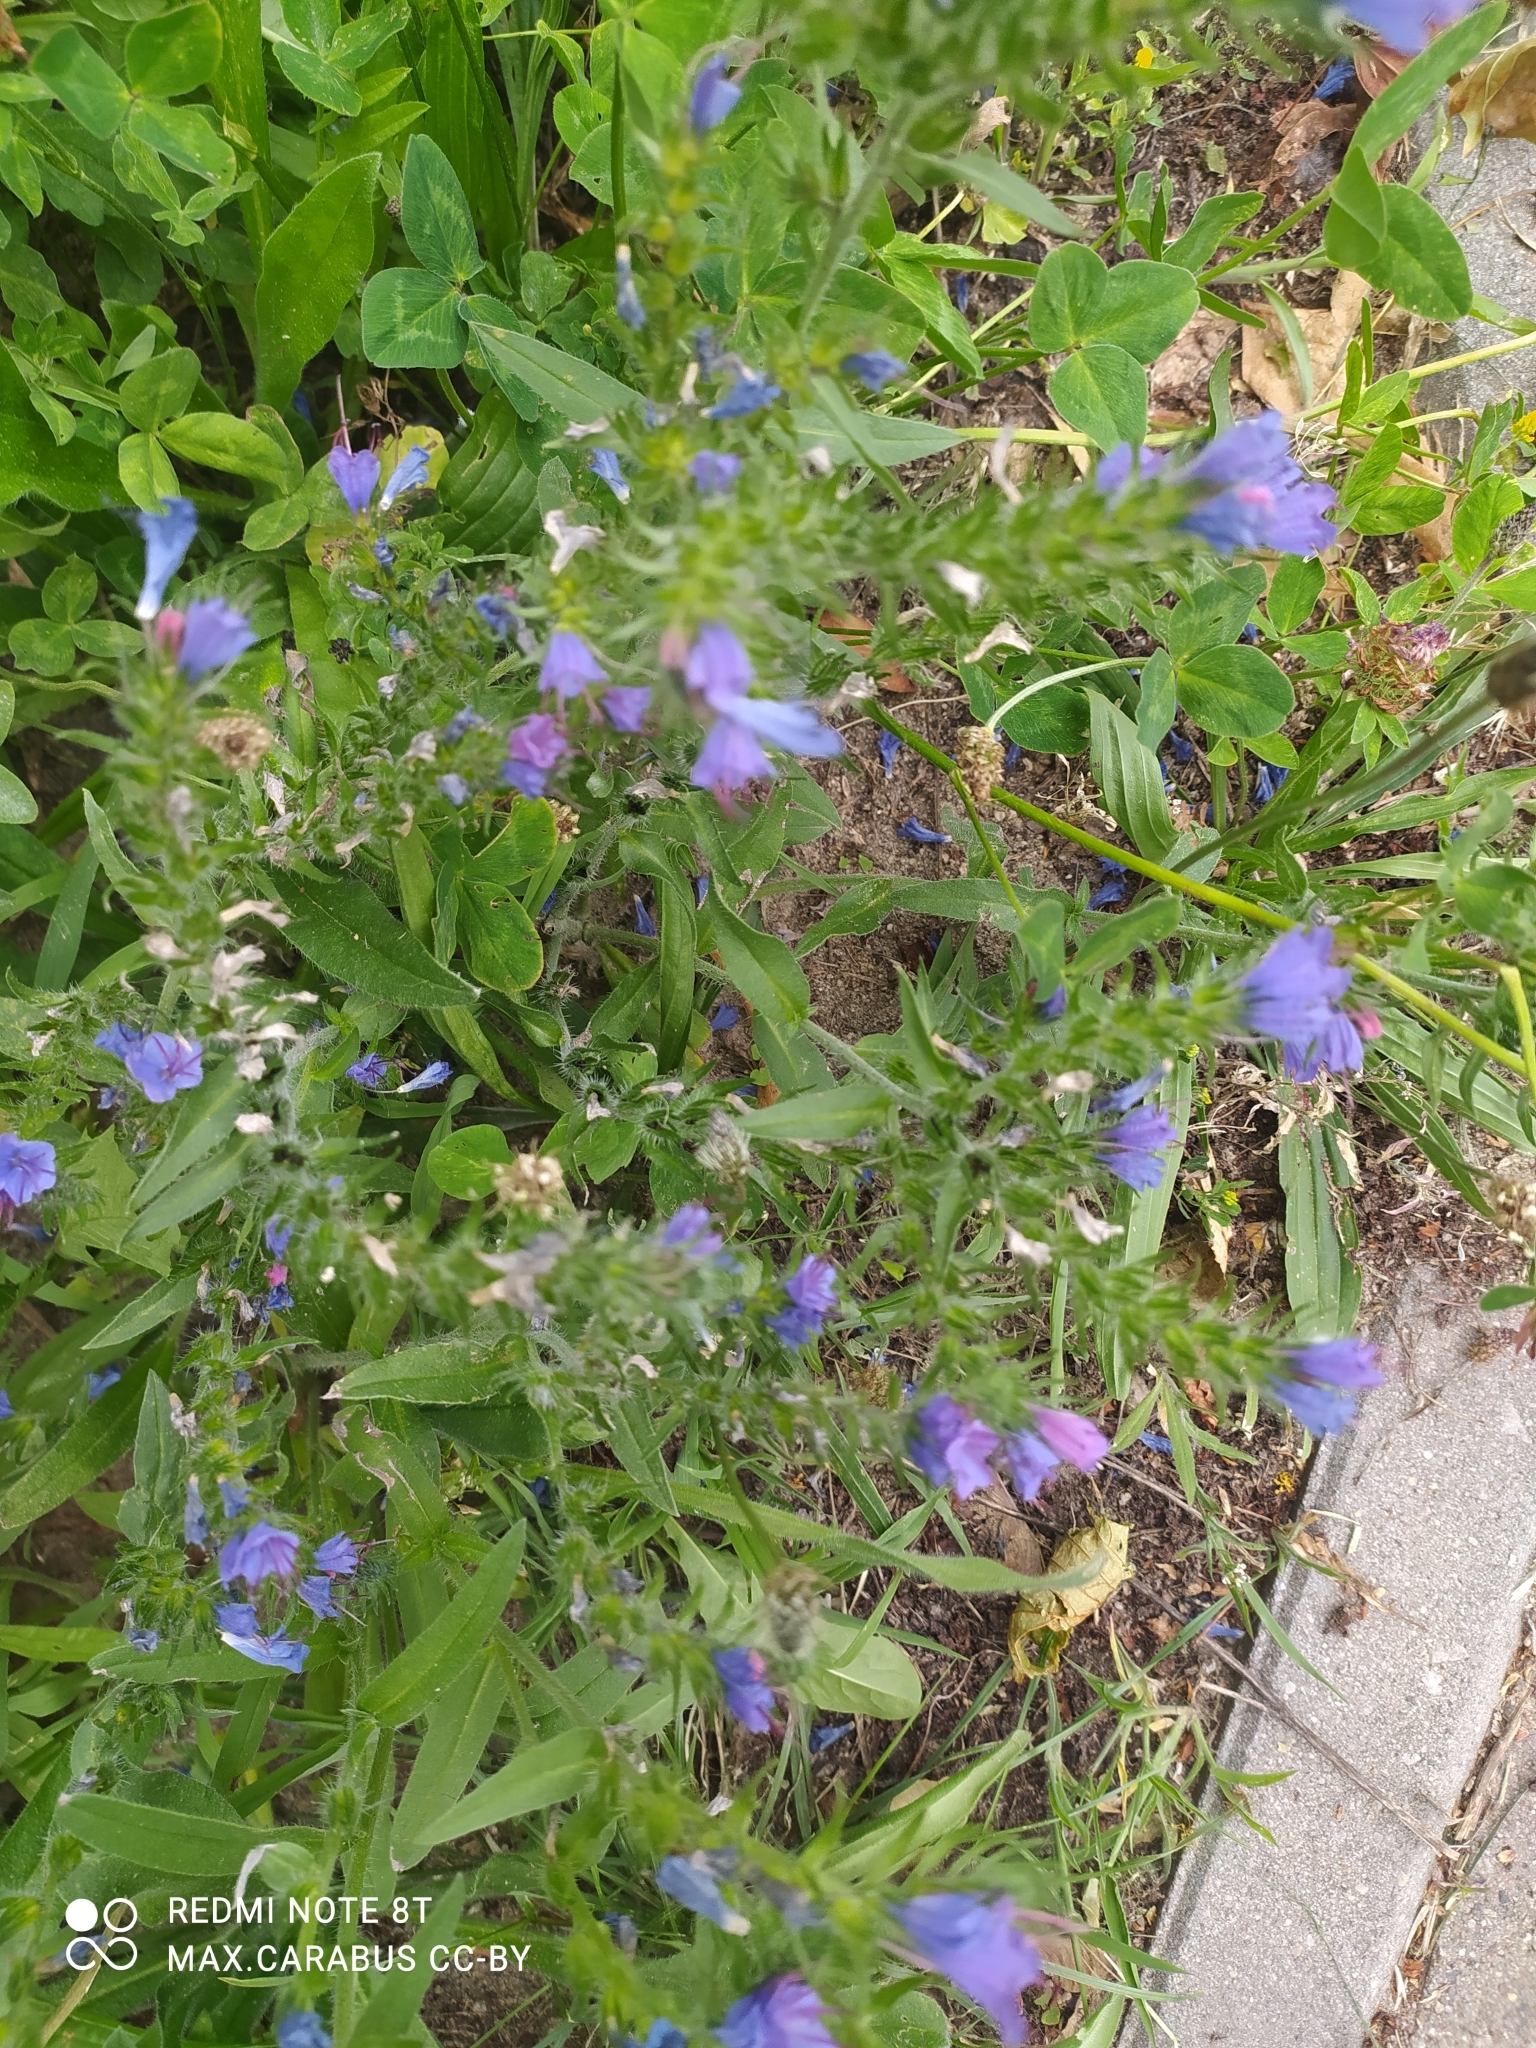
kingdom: Plantae
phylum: Tracheophyta
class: Magnoliopsida
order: Boraginales
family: Boraginaceae
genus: Echium
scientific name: Echium vulgare
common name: Common viper's bugloss
